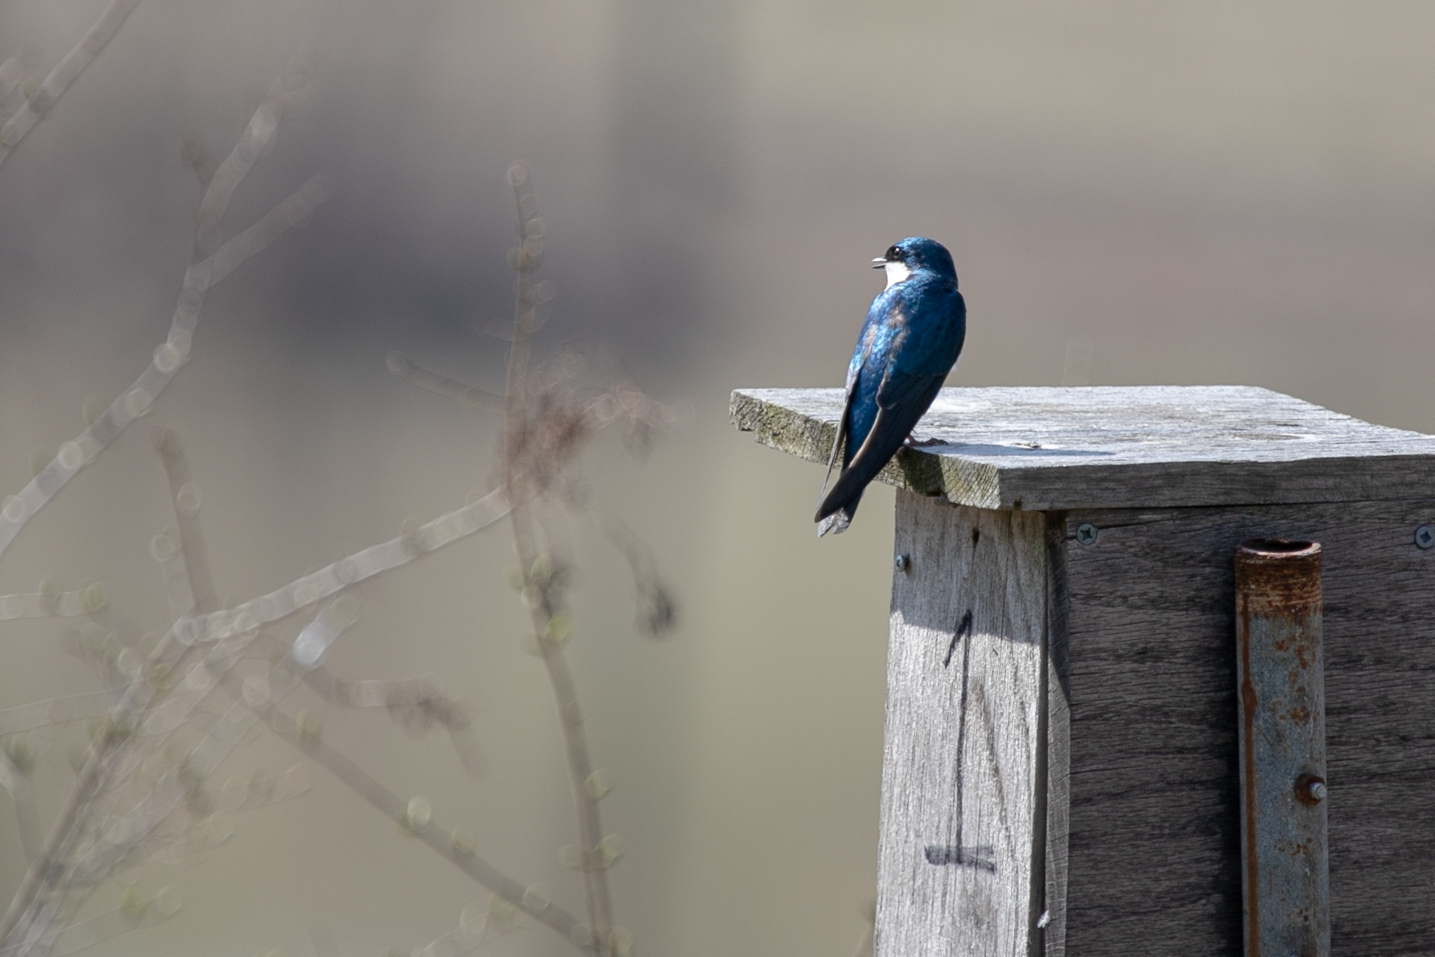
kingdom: Animalia
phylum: Chordata
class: Aves
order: Passeriformes
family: Hirundinidae
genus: Tachycineta
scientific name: Tachycineta bicolor
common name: Tree swallow
